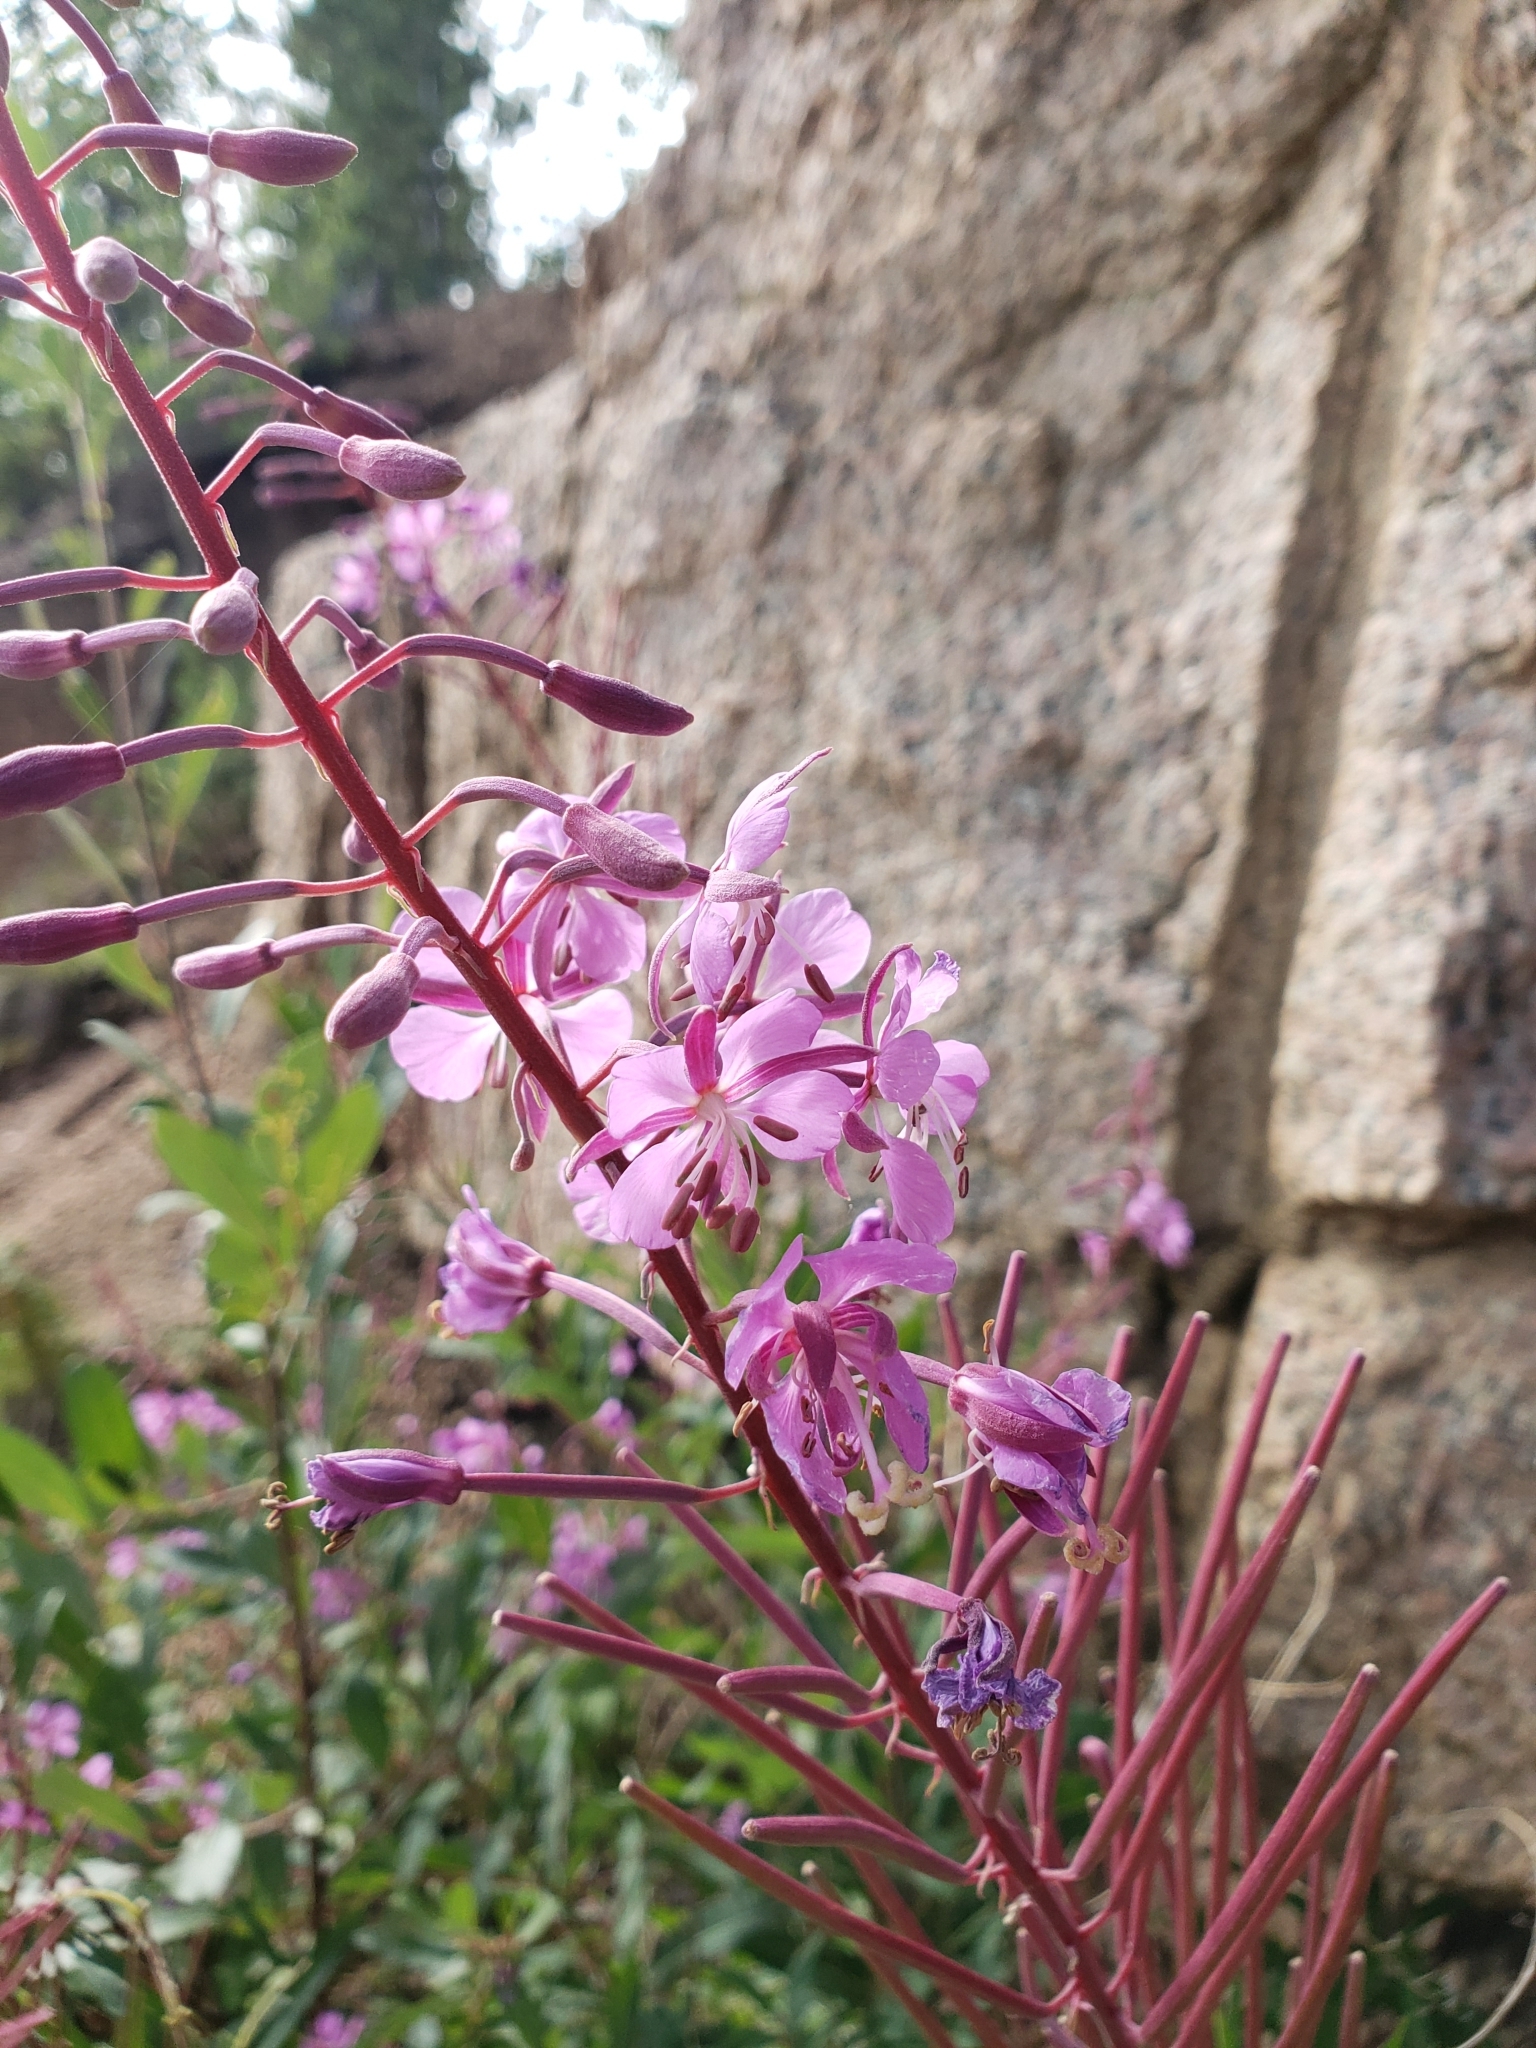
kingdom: Plantae
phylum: Tracheophyta
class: Magnoliopsida
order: Myrtales
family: Onagraceae
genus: Chamaenerion
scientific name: Chamaenerion angustifolium
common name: Fireweed
